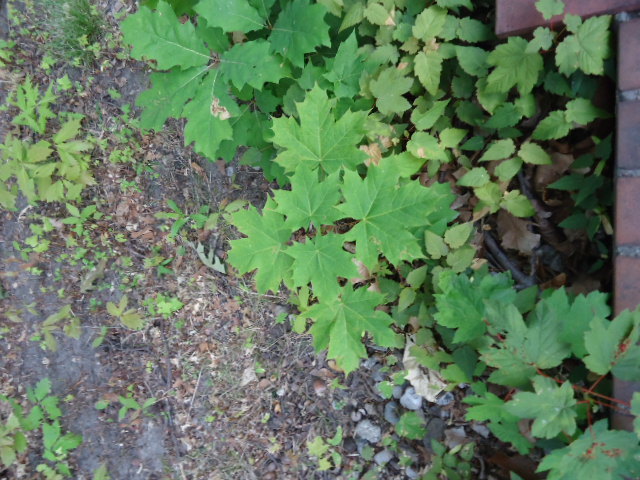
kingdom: Plantae
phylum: Tracheophyta
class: Magnoliopsida
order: Sapindales
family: Sapindaceae
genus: Acer
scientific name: Acer platanoides
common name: Norway maple
